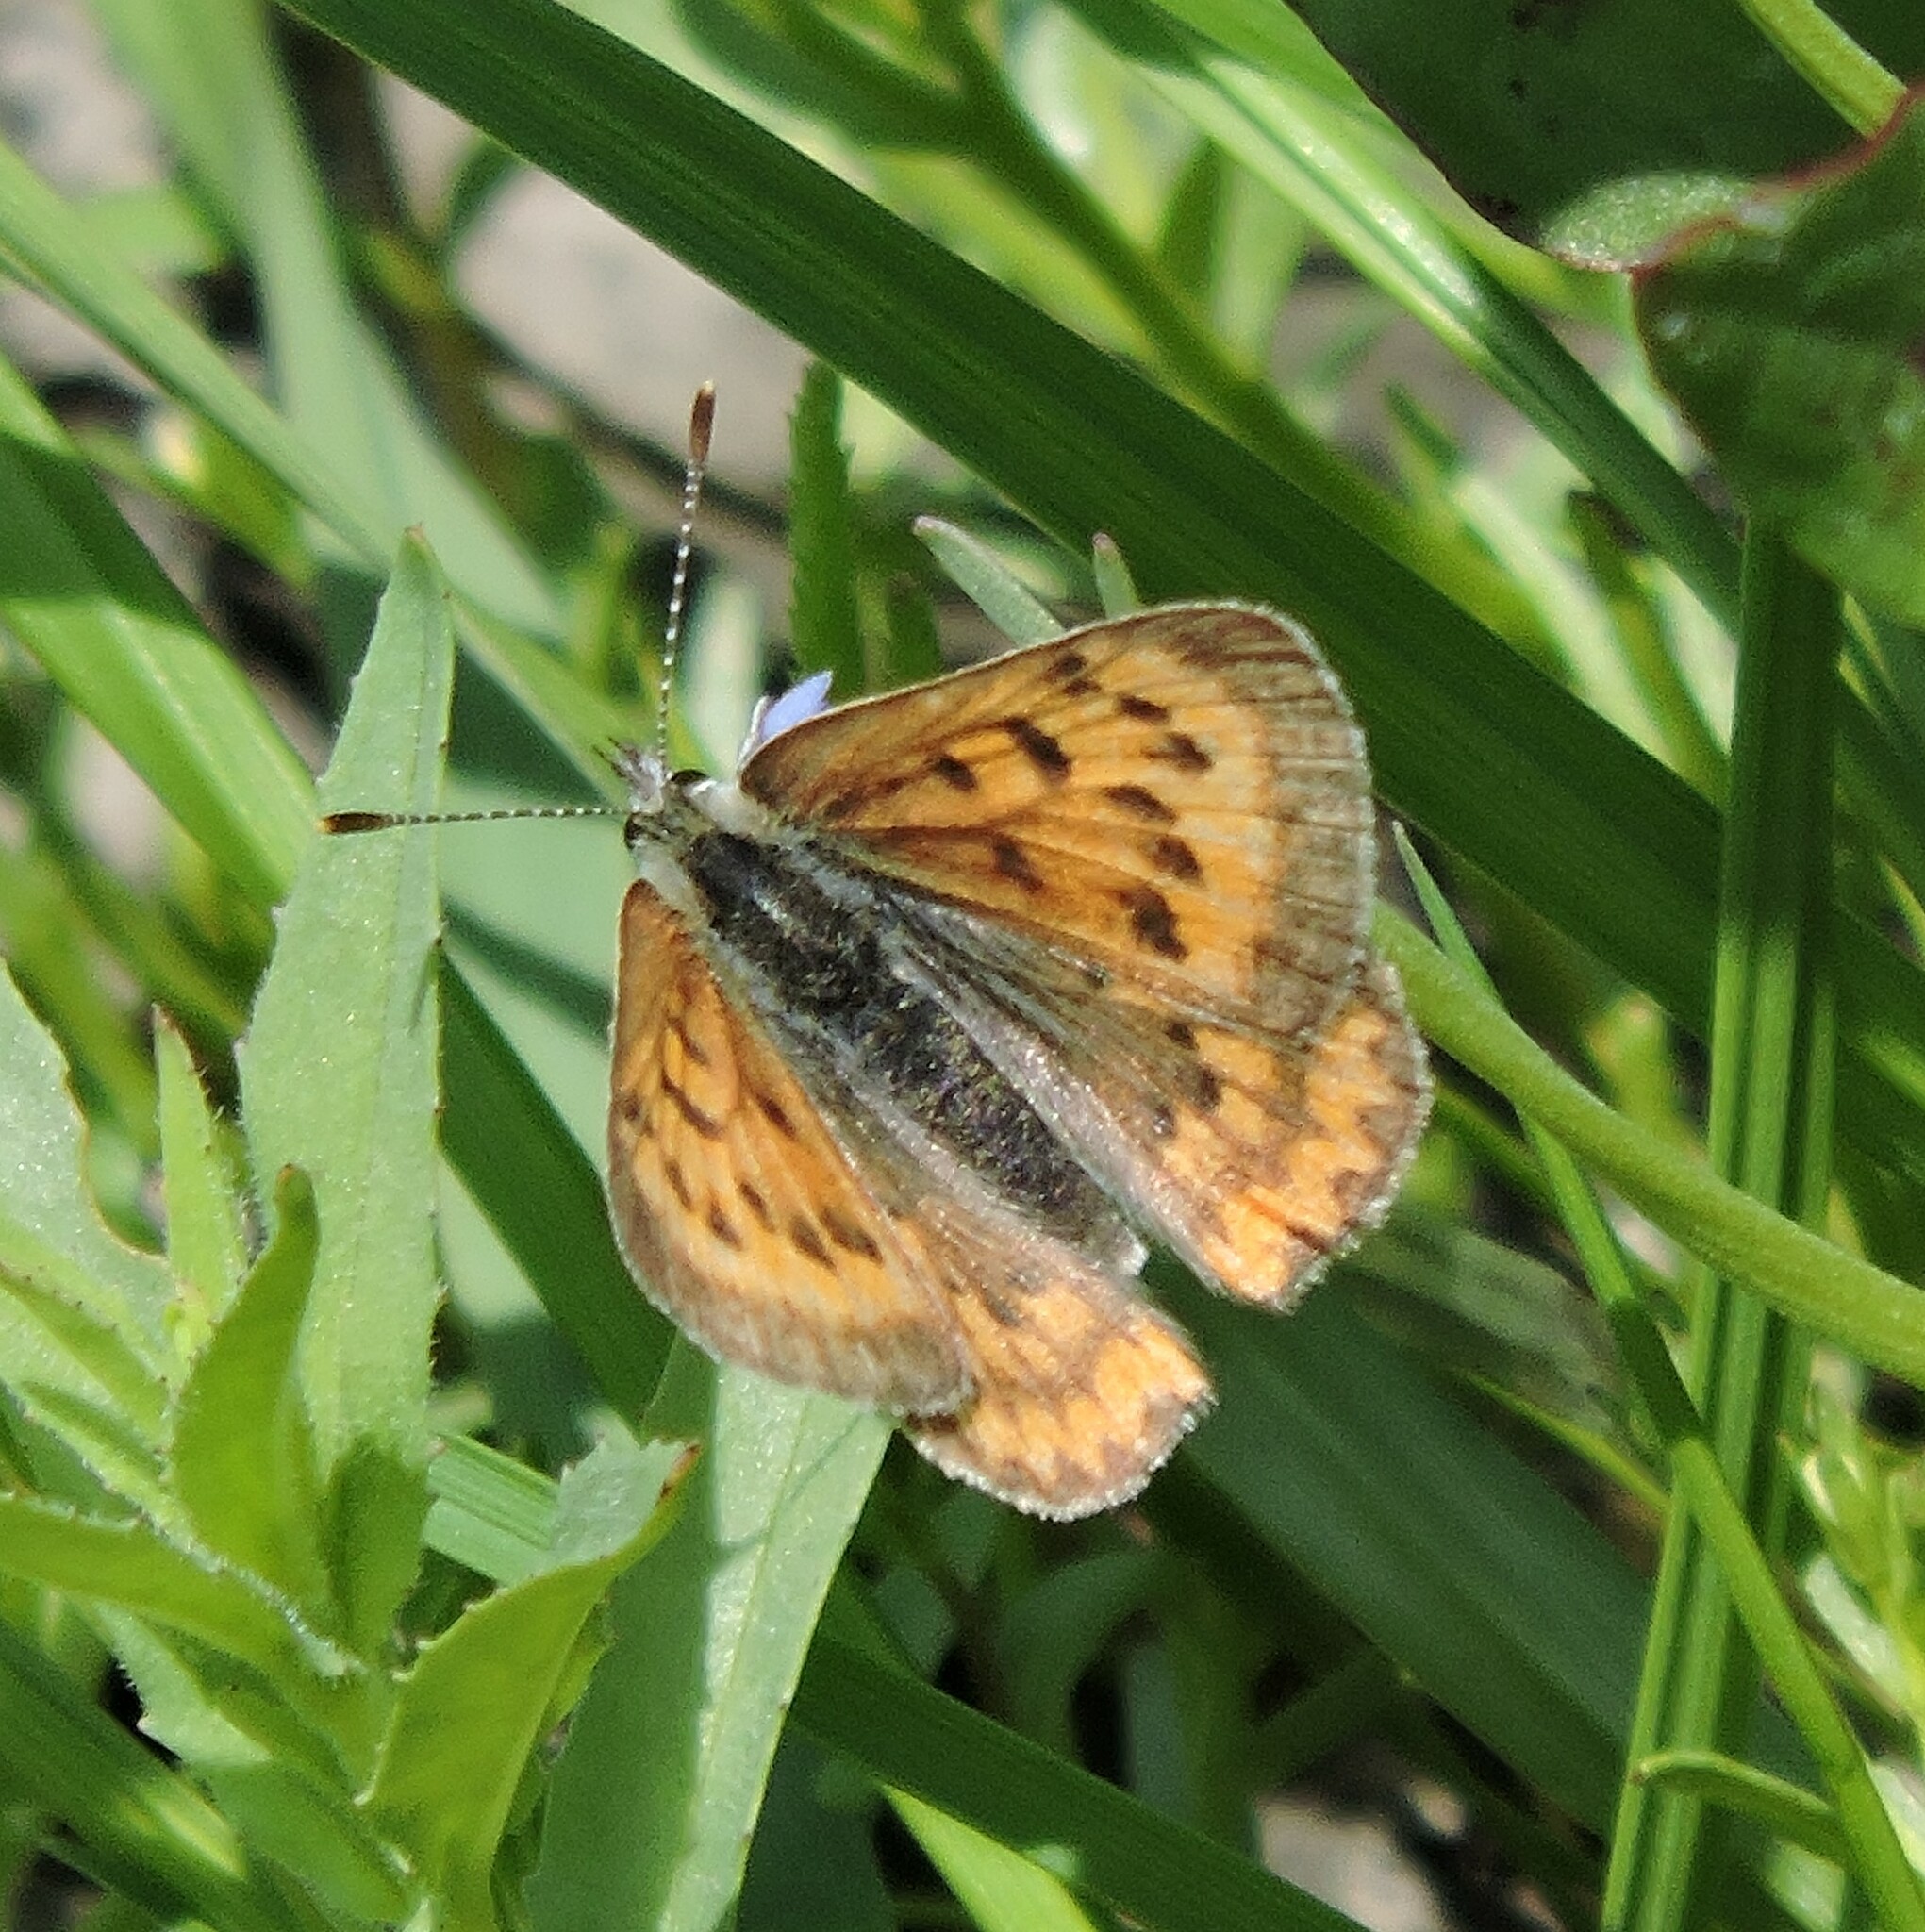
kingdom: Animalia
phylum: Arthropoda
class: Insecta
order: Lepidoptera
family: Lycaenidae
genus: Tharsalea
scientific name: Tharsalea helloides
